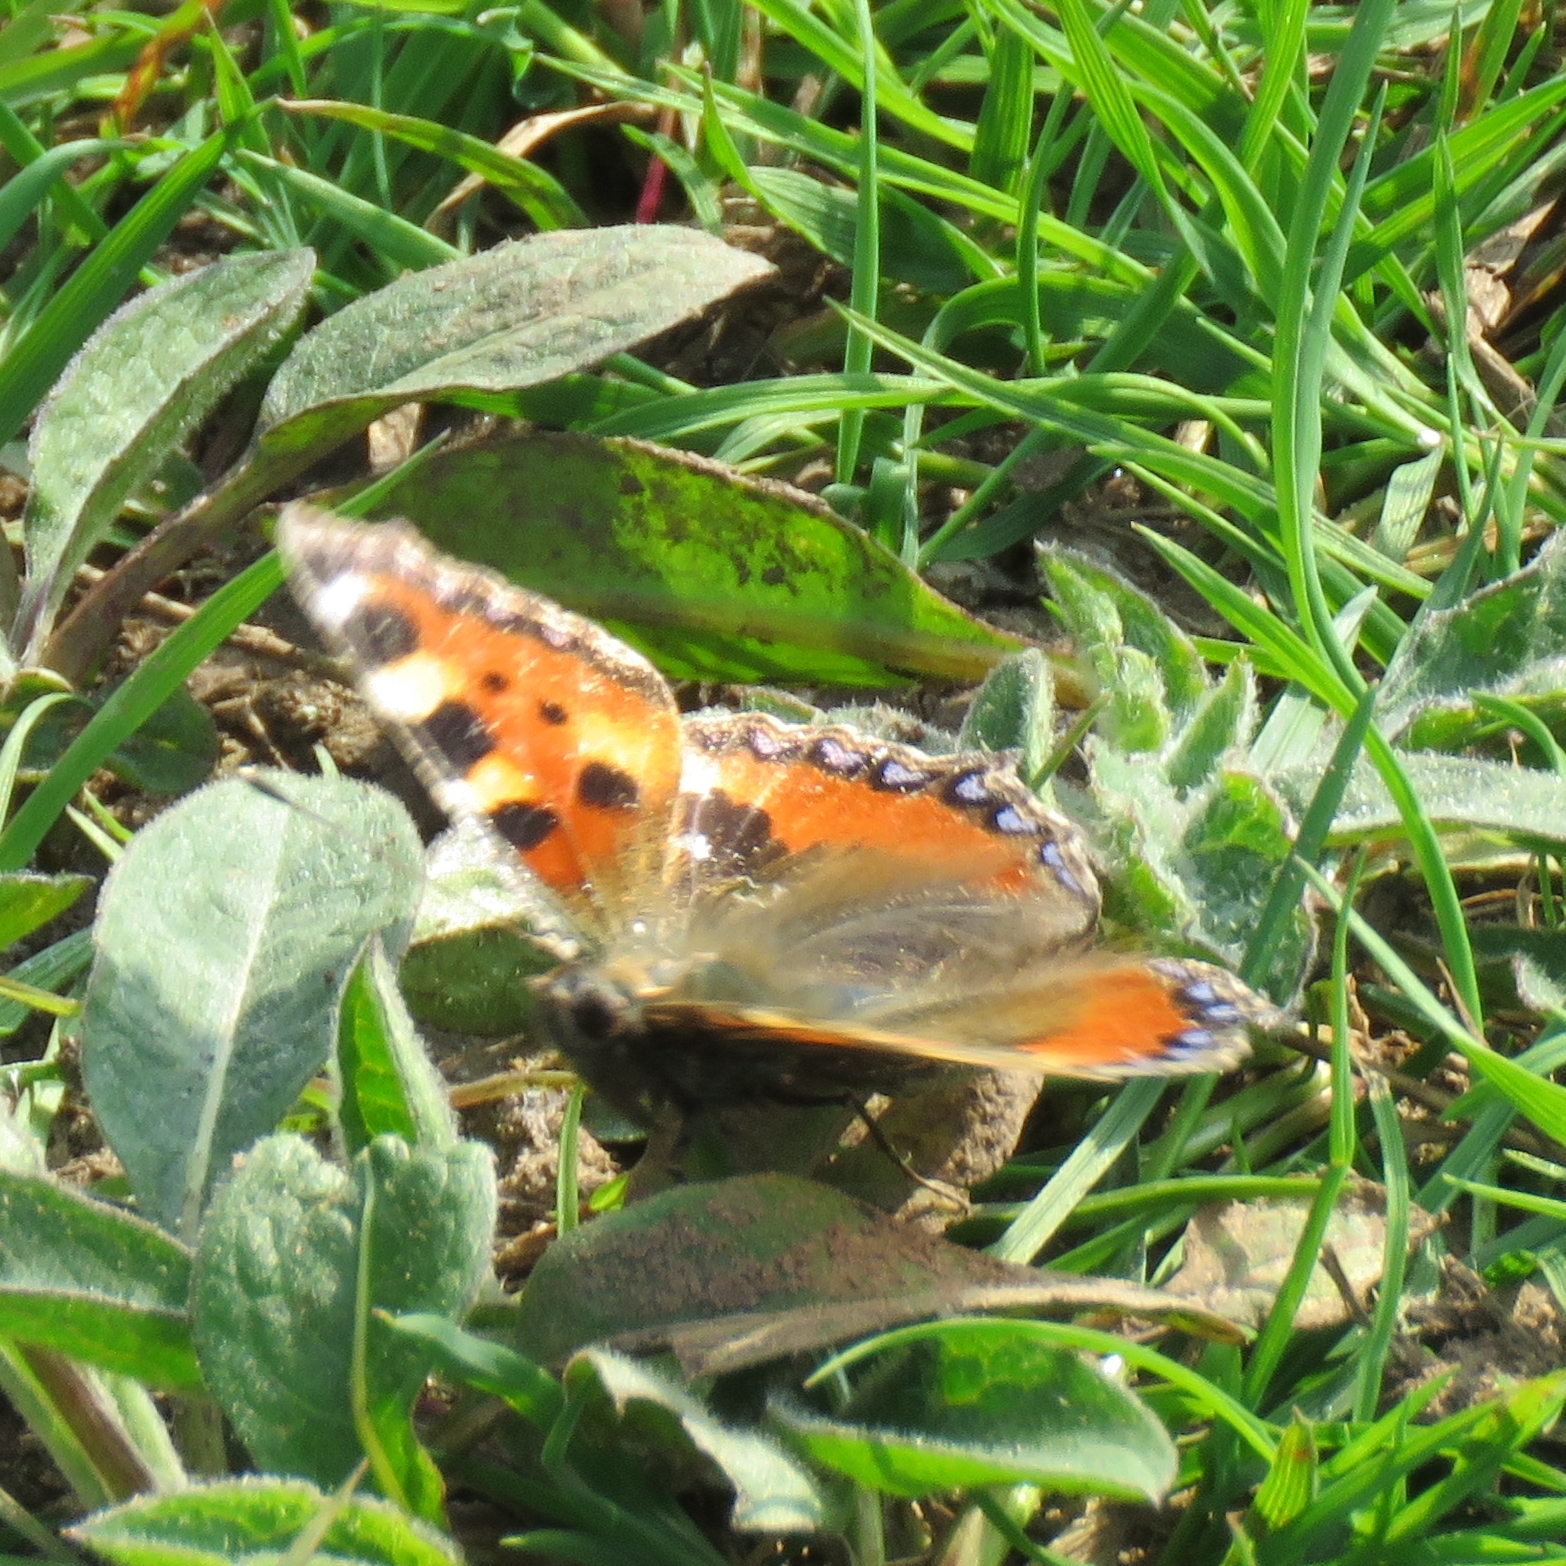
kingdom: Animalia
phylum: Arthropoda
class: Insecta
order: Lepidoptera
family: Nymphalidae
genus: Aglais
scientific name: Aglais urticae
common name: Small tortoiseshell
